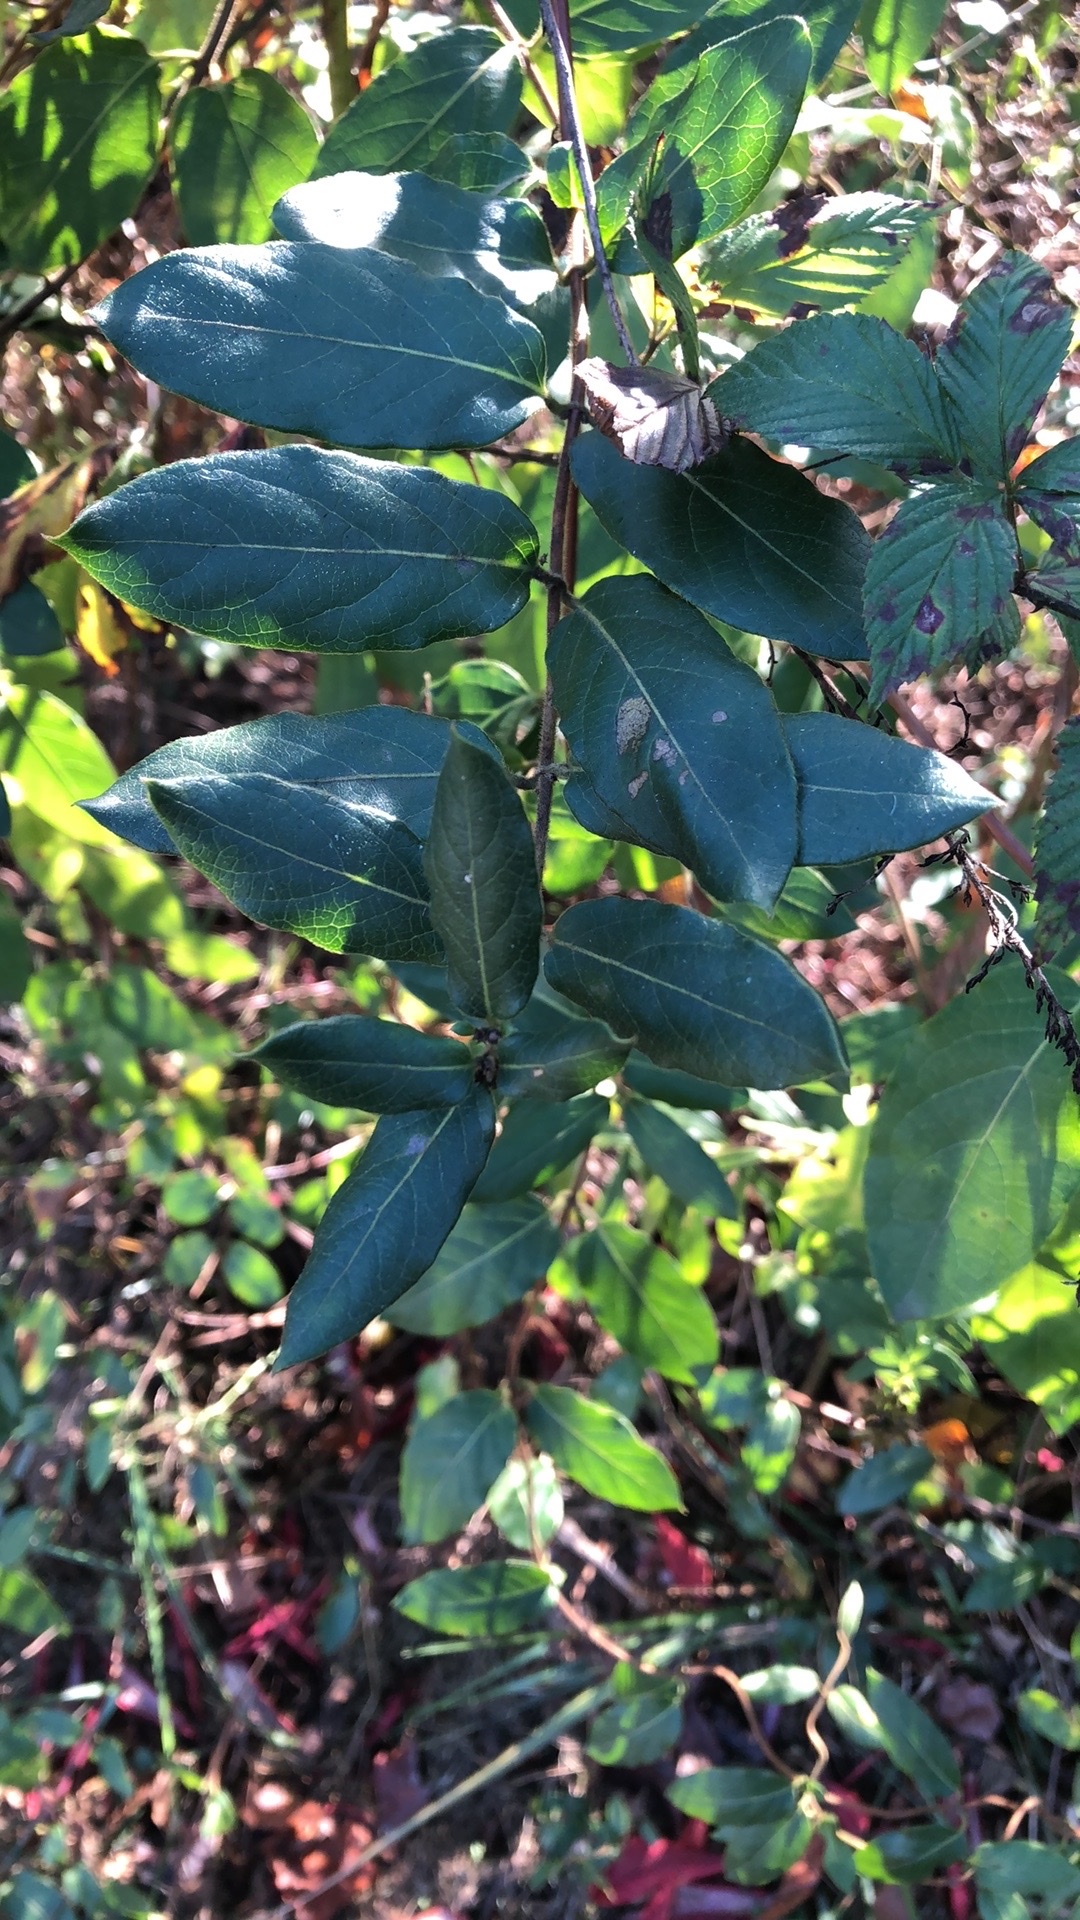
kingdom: Plantae
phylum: Tracheophyta
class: Magnoliopsida
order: Dipsacales
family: Caprifoliaceae
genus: Lonicera
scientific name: Lonicera japonica
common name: Japanese honeysuckle
